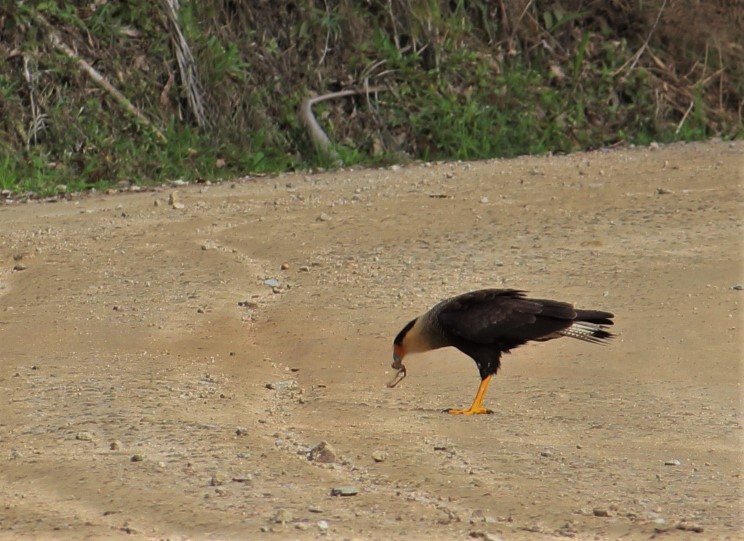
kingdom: Animalia
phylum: Chordata
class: Aves
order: Falconiformes
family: Falconidae
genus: Caracara
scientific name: Caracara plancus
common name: Southern caracara
